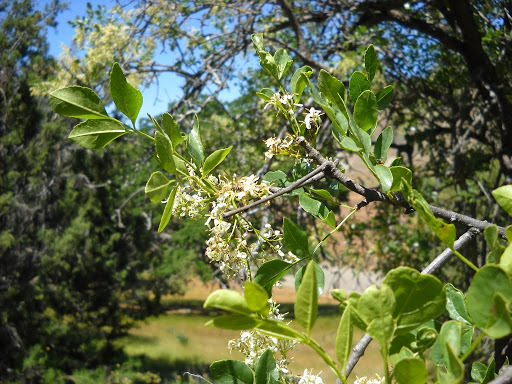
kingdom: Plantae
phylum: Tracheophyta
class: Magnoliopsida
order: Lamiales
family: Oleaceae
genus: Fraxinus
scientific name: Fraxinus dipetala
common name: California ash
